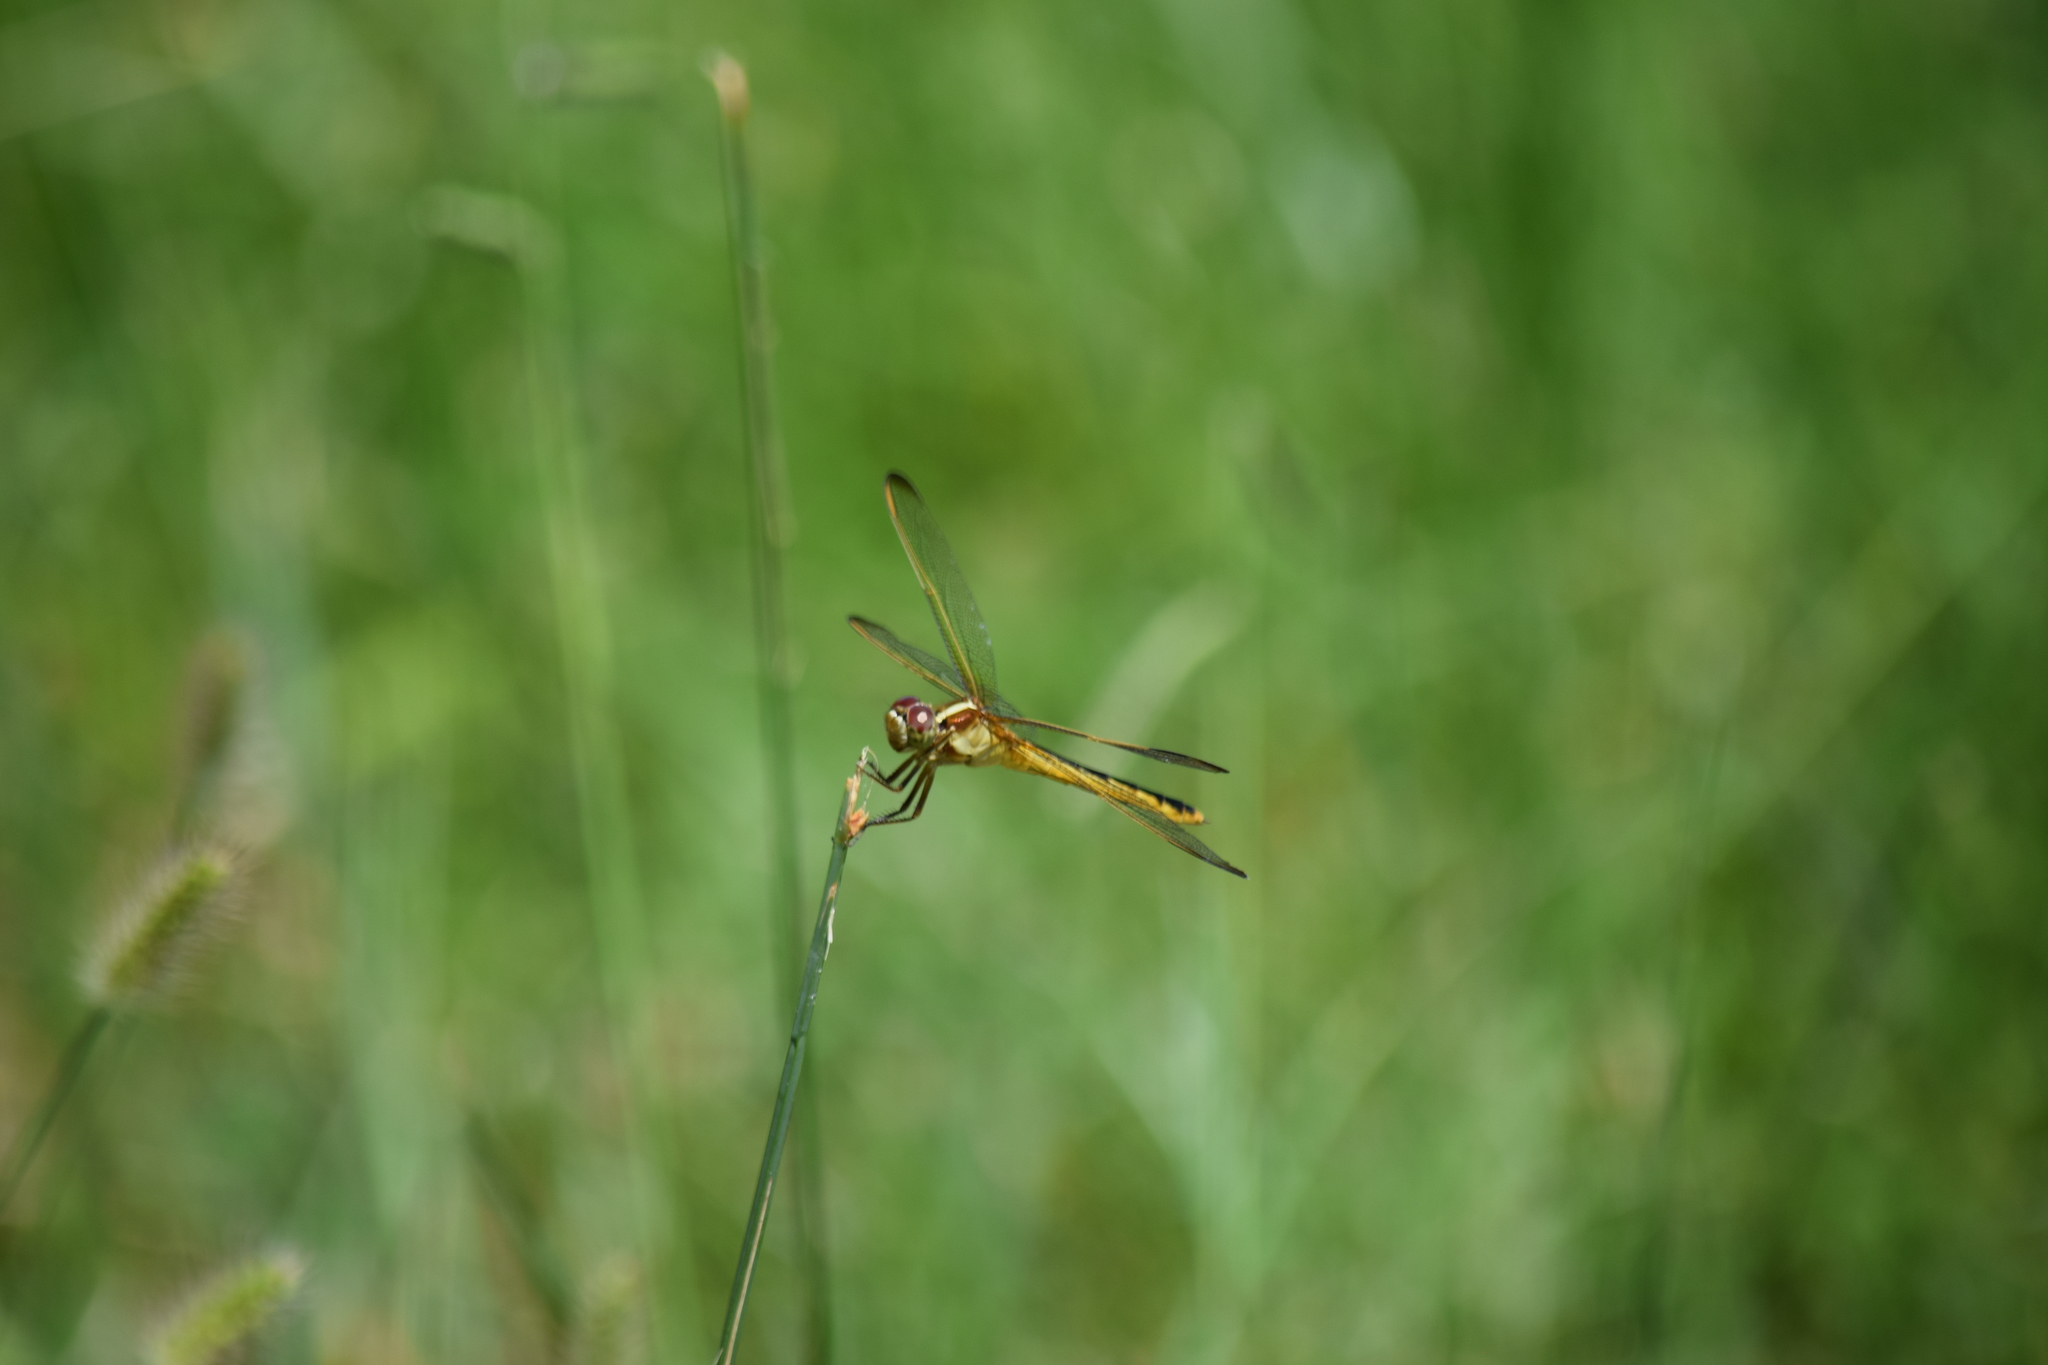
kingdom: Animalia
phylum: Arthropoda
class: Insecta
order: Odonata
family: Libellulidae
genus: Libellula
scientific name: Libellula needhami
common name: Needham's skimmer
